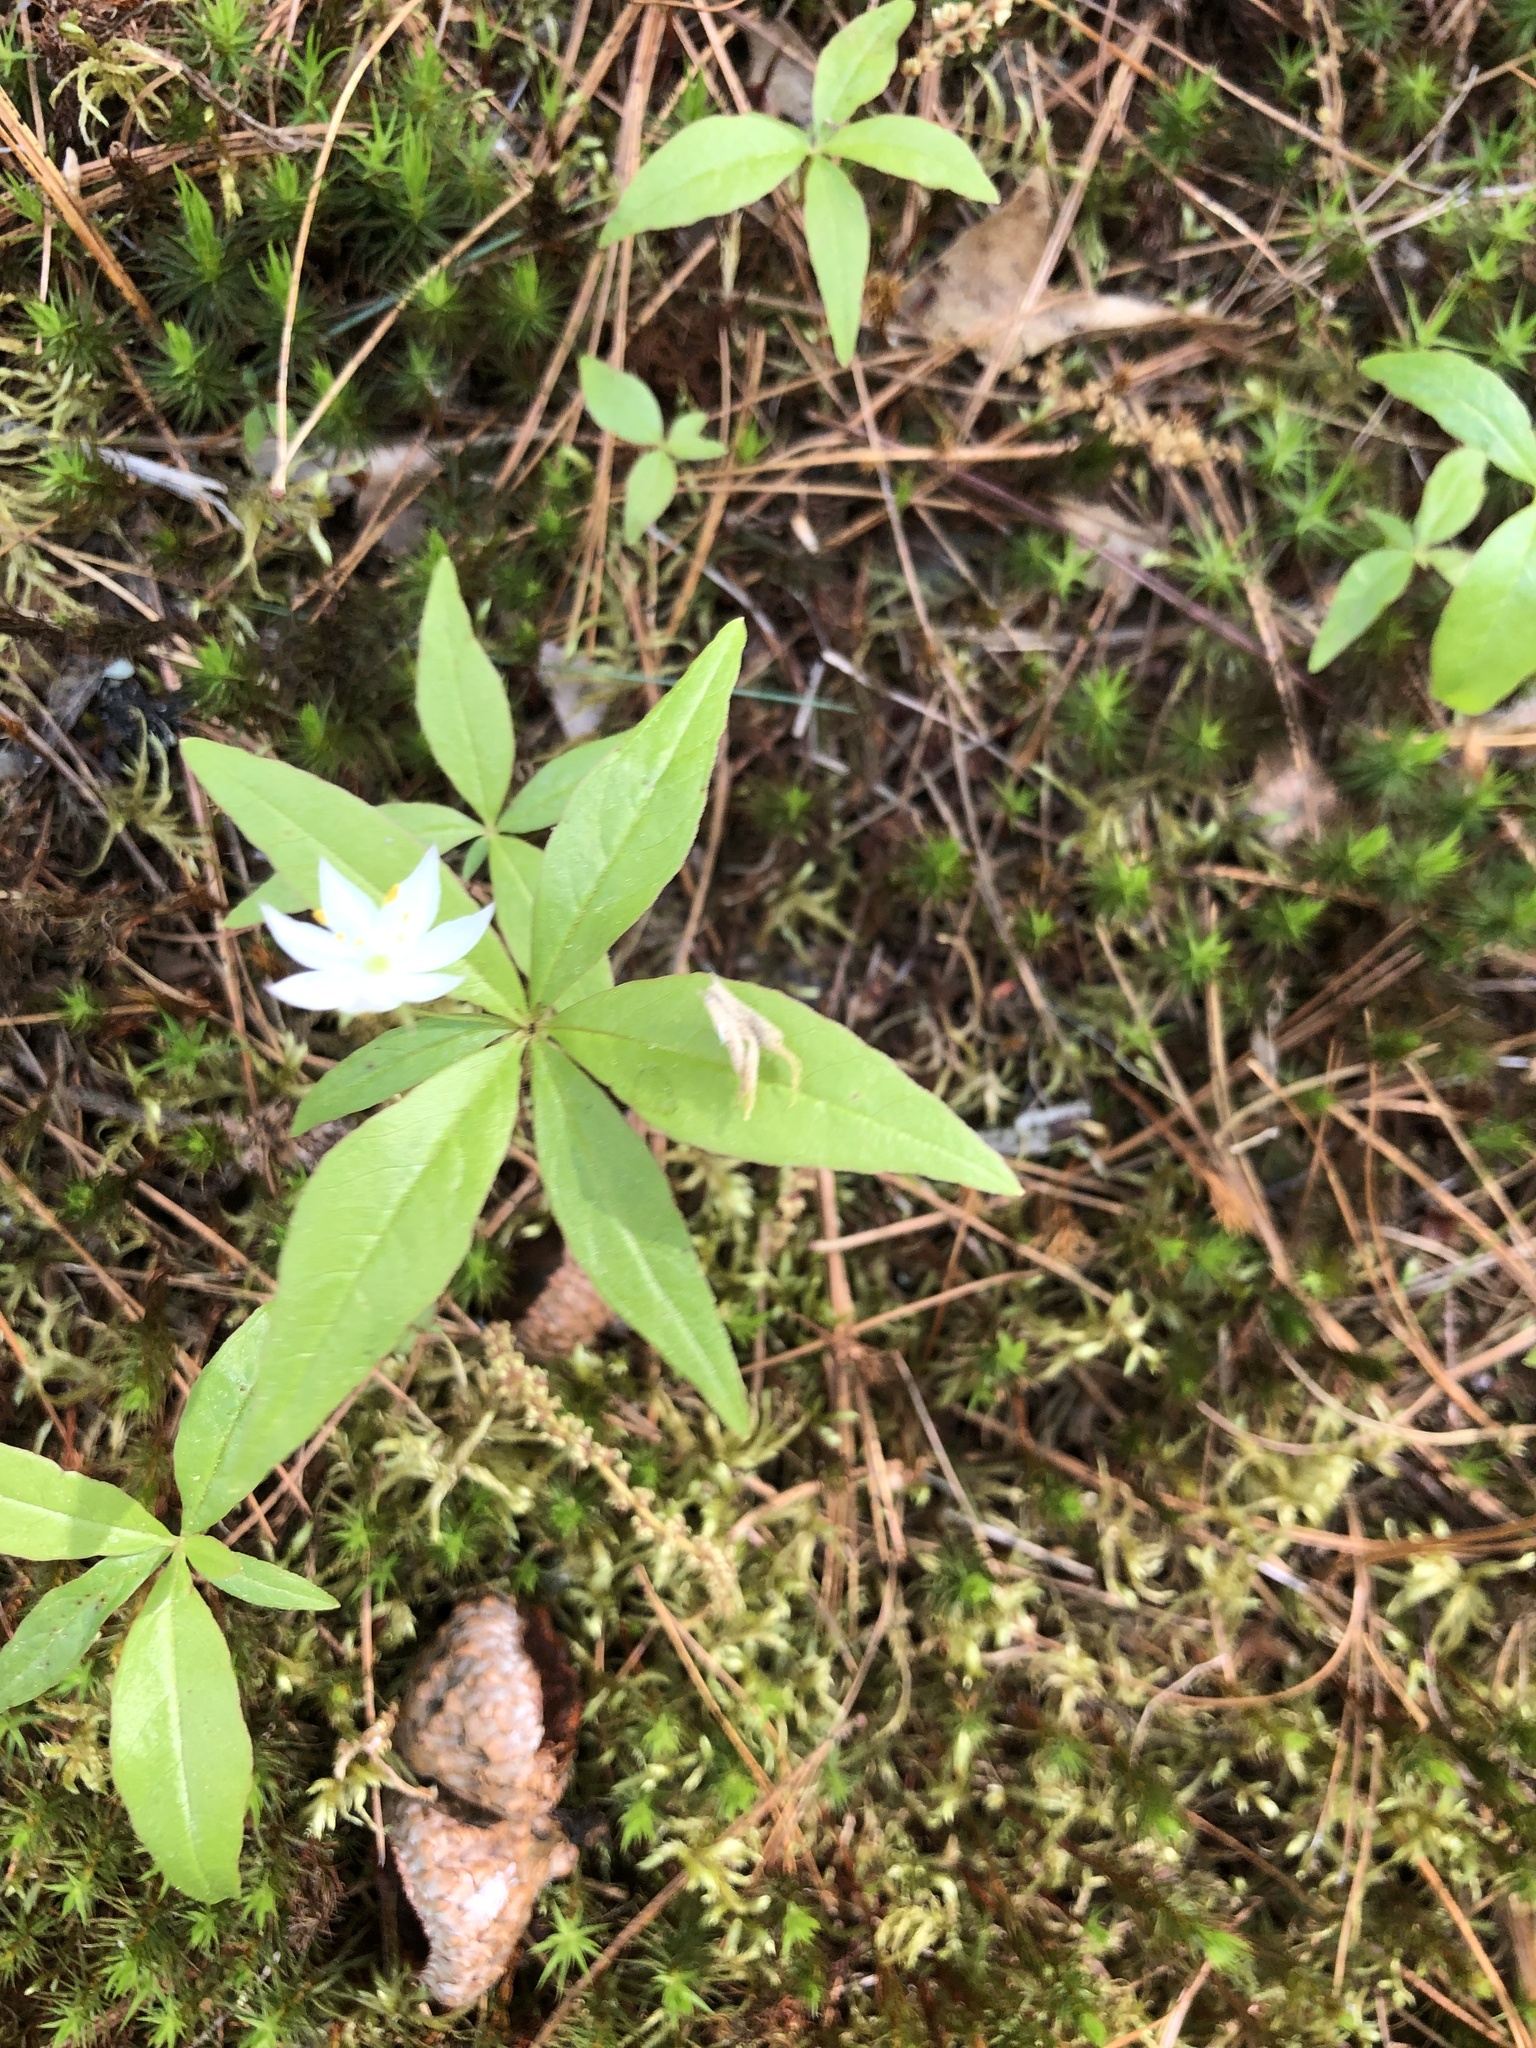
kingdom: Plantae
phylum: Tracheophyta
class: Magnoliopsida
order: Ericales
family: Primulaceae
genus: Lysimachia
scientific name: Lysimachia borealis
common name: American starflower
